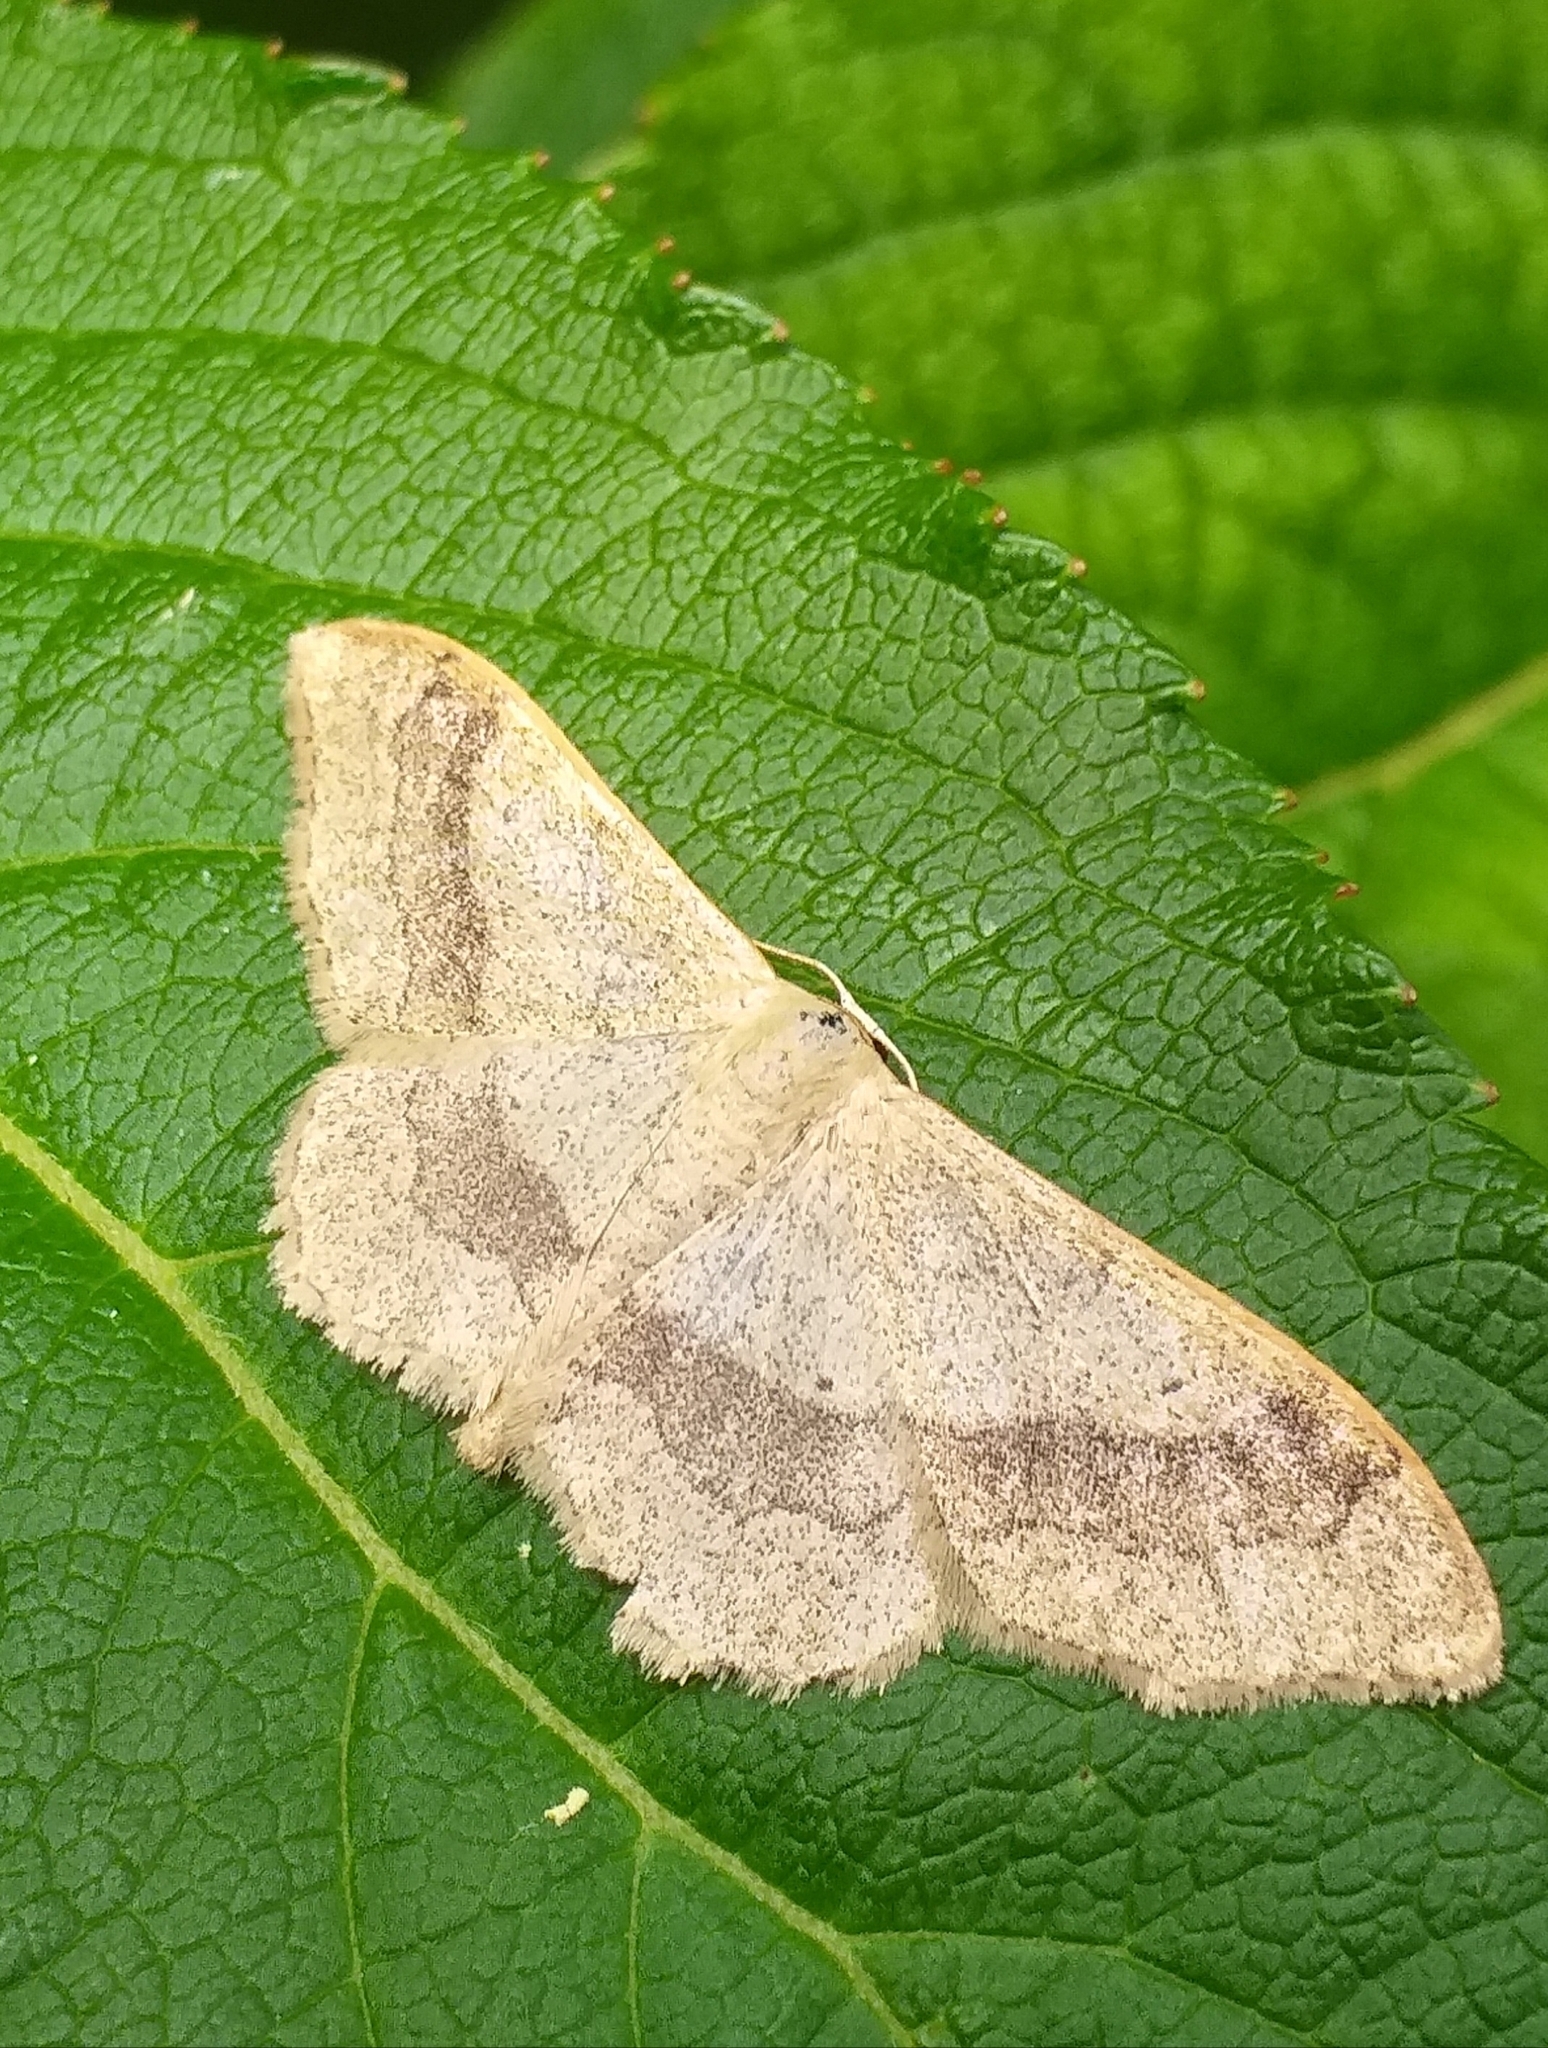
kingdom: Animalia
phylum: Arthropoda
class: Insecta
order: Lepidoptera
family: Geometridae
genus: Idaea
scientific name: Idaea aversata
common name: Riband wave
